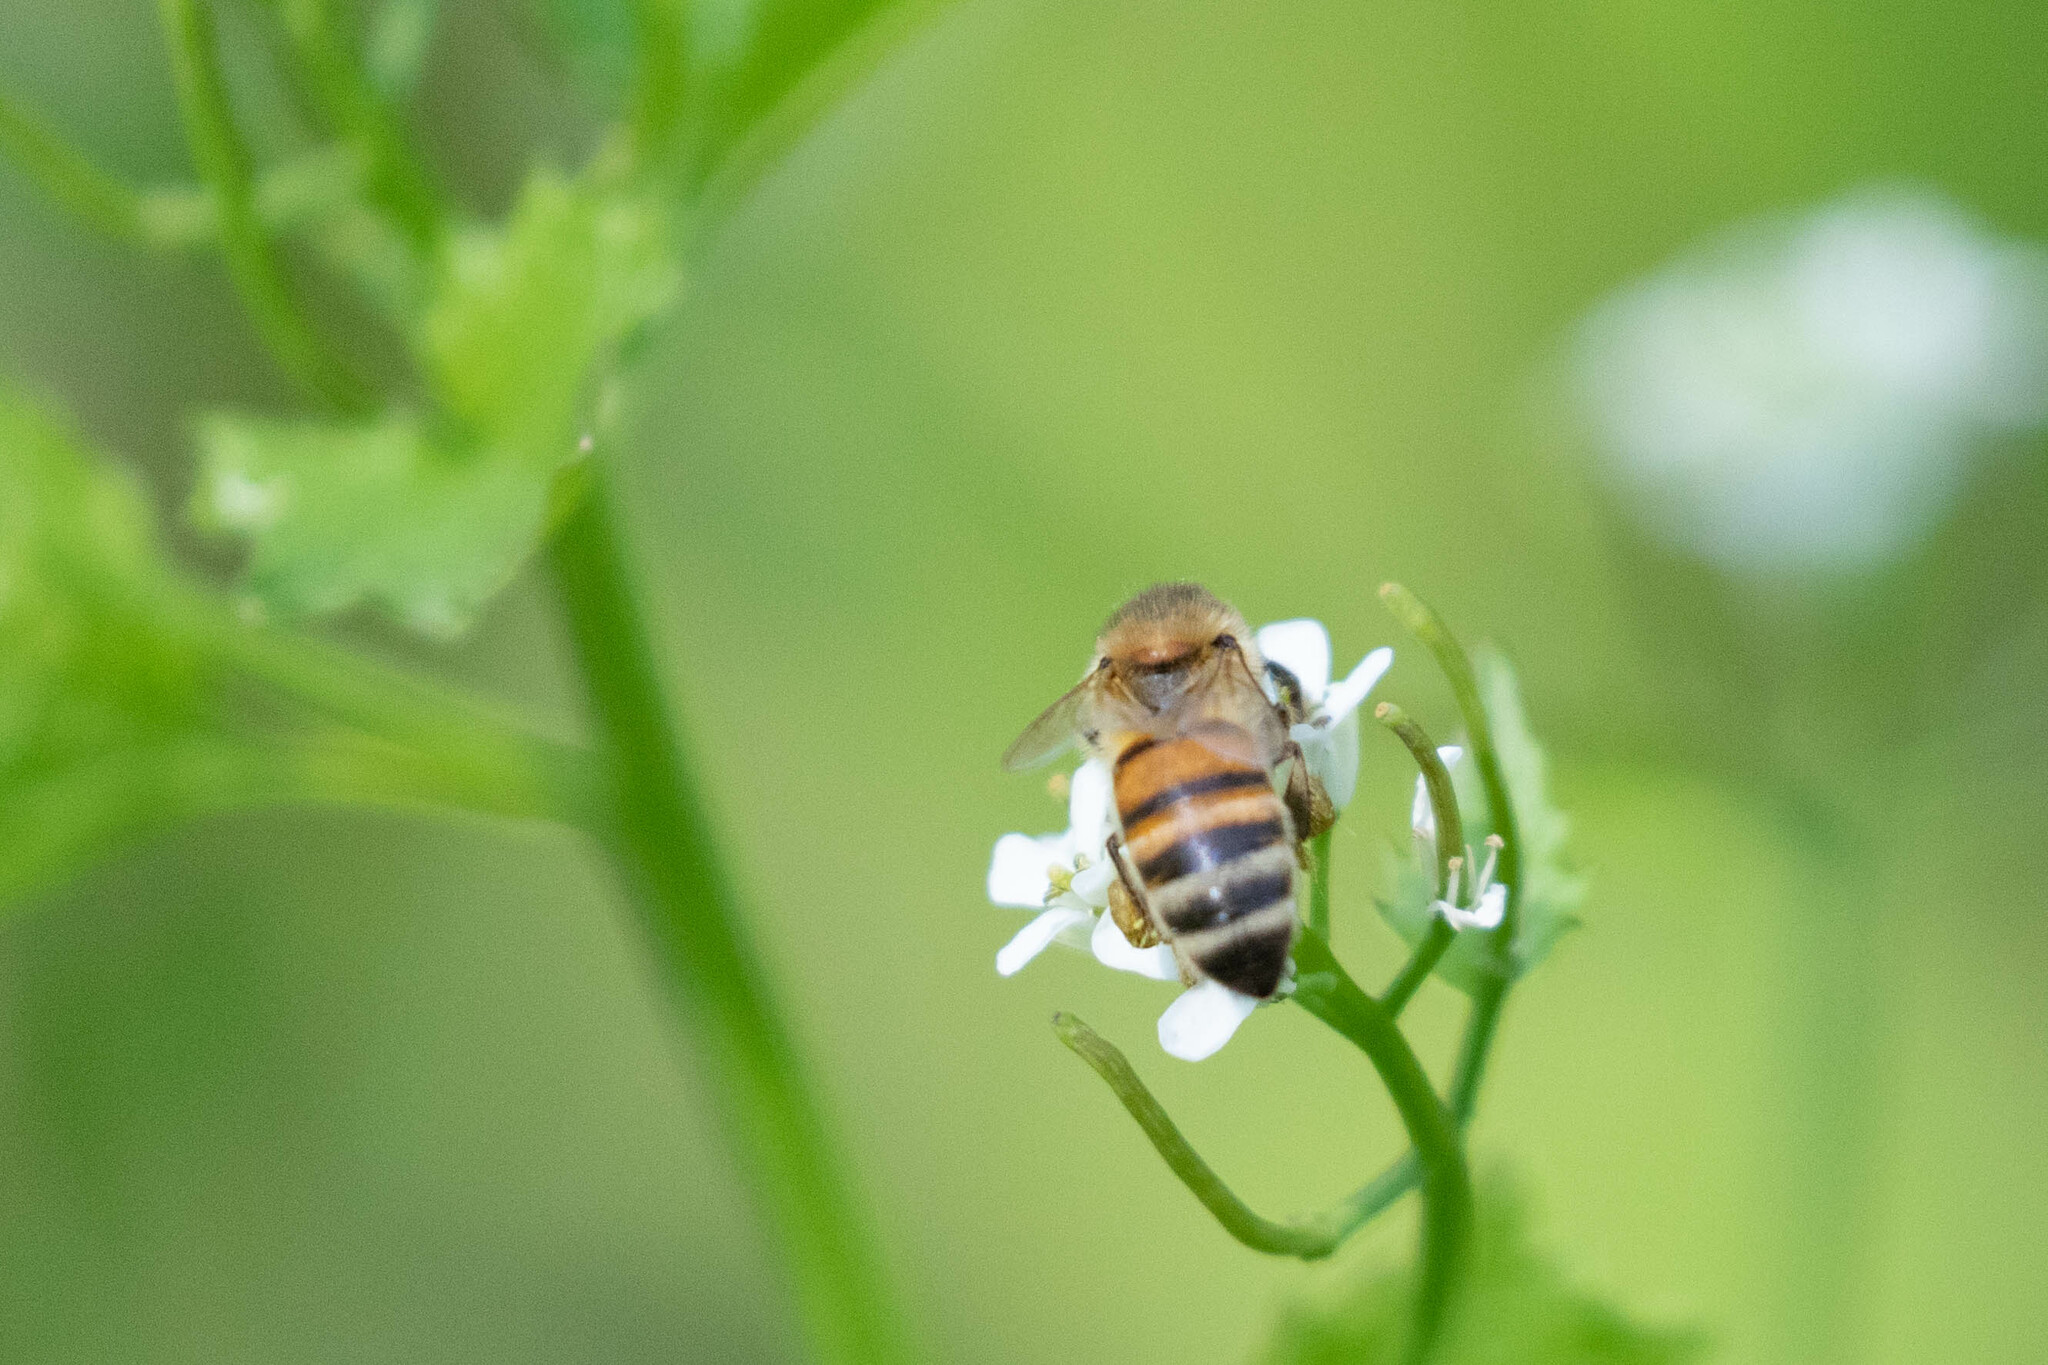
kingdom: Animalia
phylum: Arthropoda
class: Insecta
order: Hymenoptera
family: Apidae
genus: Apis
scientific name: Apis mellifera
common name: Honey bee
